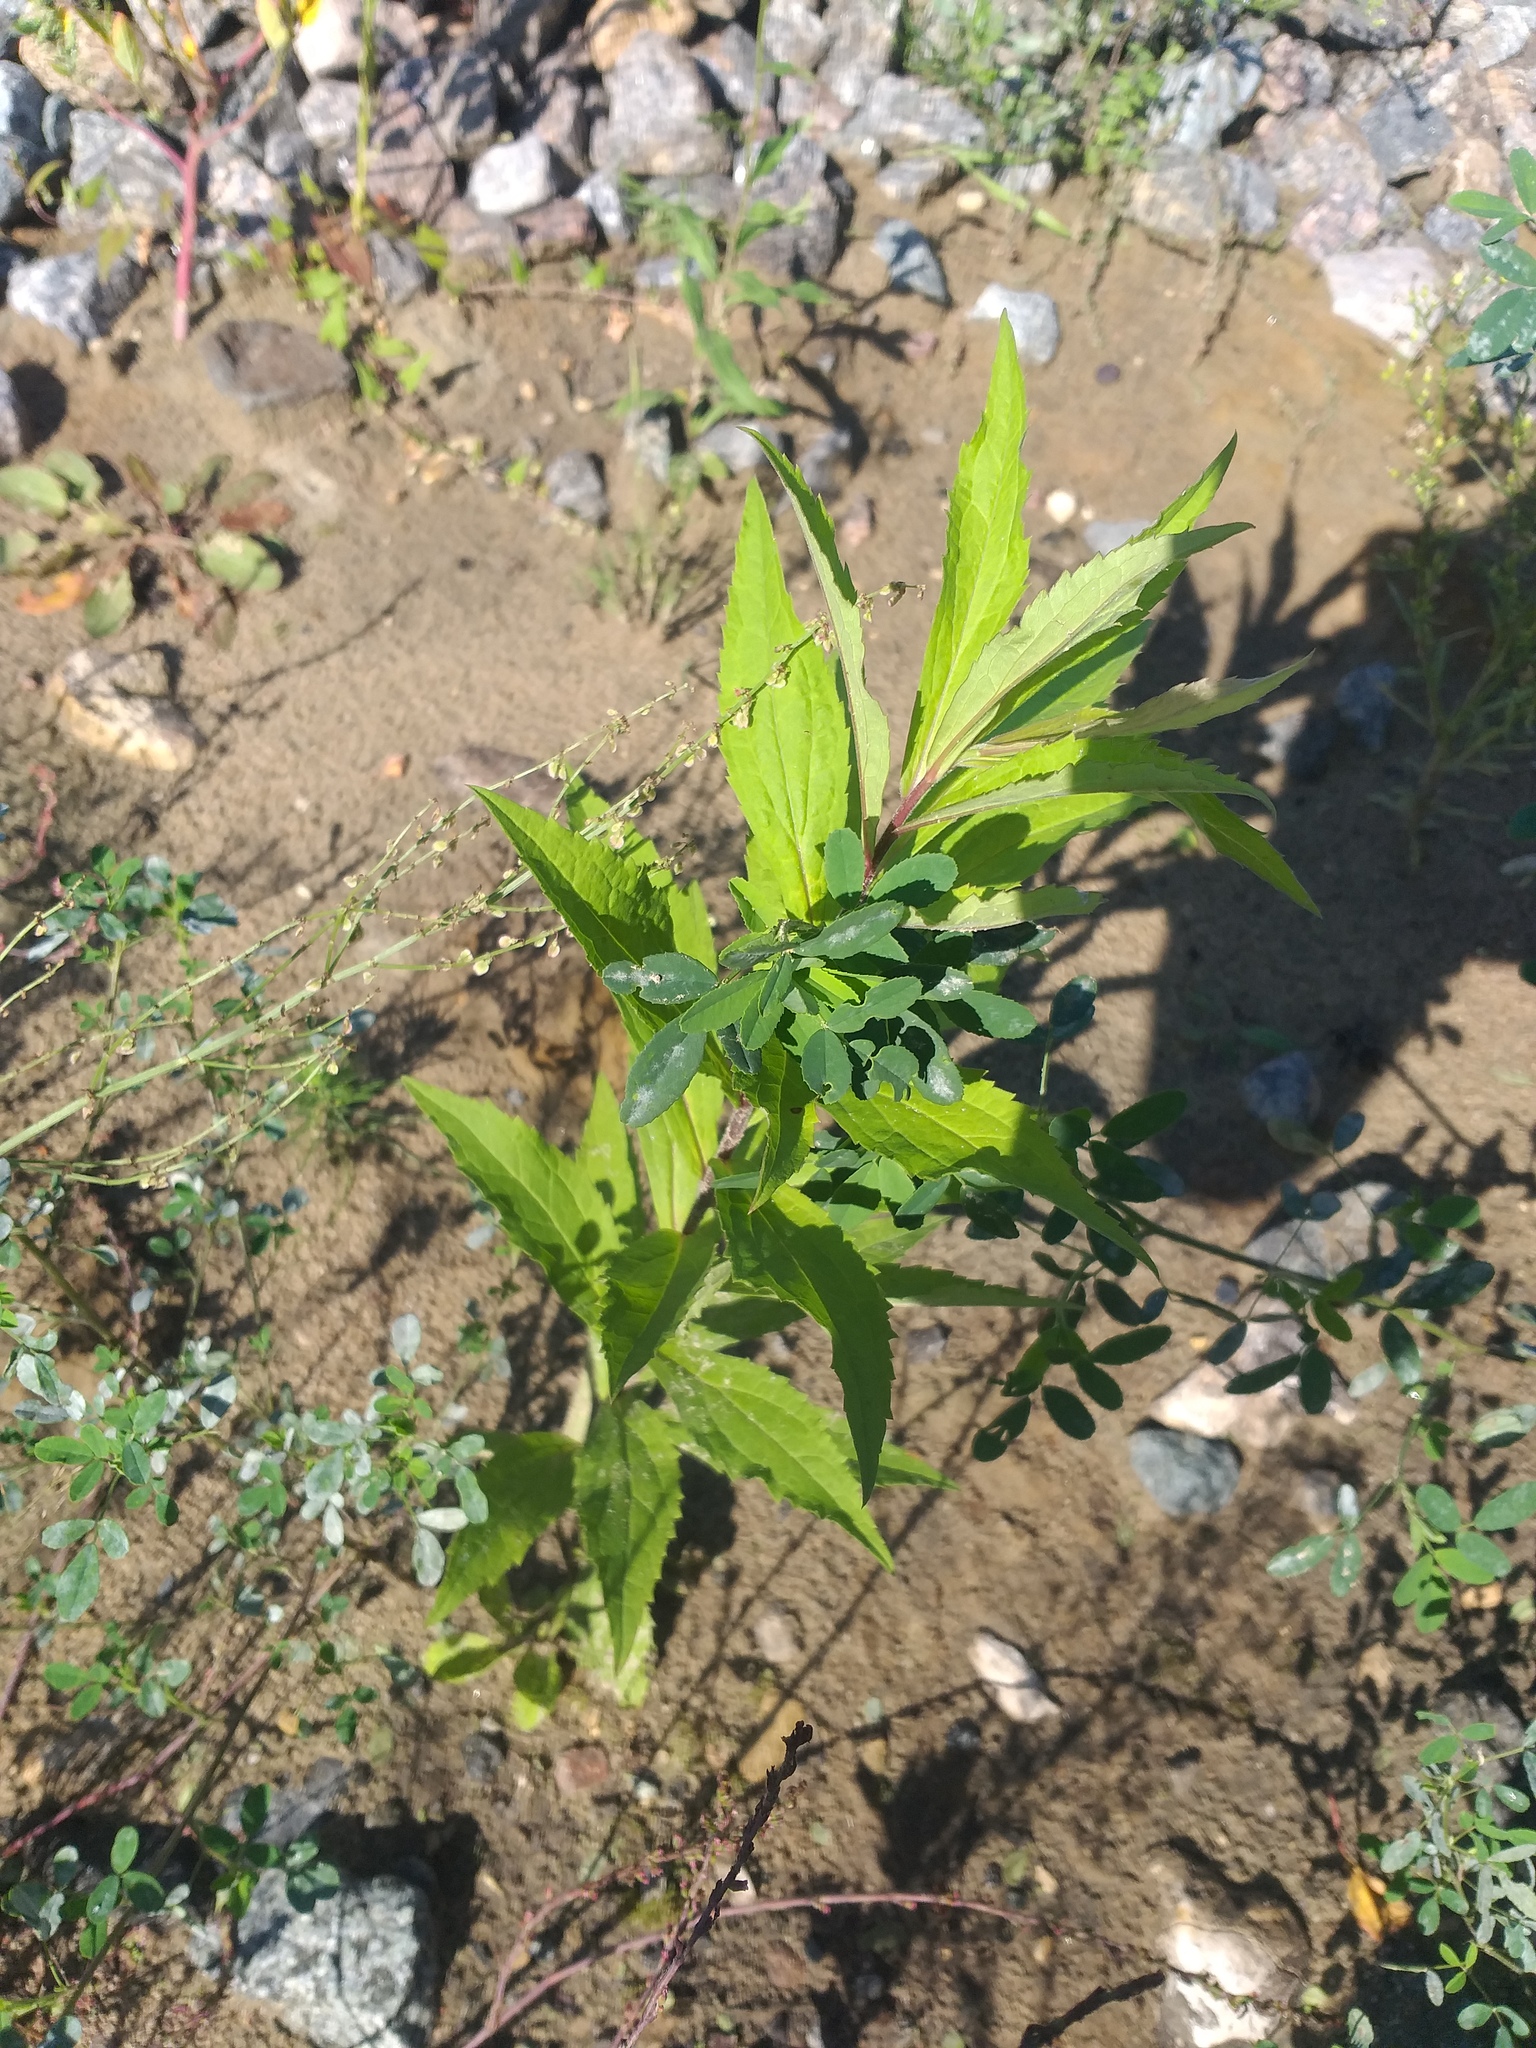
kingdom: Plantae
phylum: Tracheophyta
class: Magnoliopsida
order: Asterales
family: Asteraceae
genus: Solidago
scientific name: Solidago canadensis
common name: Canada goldenrod
